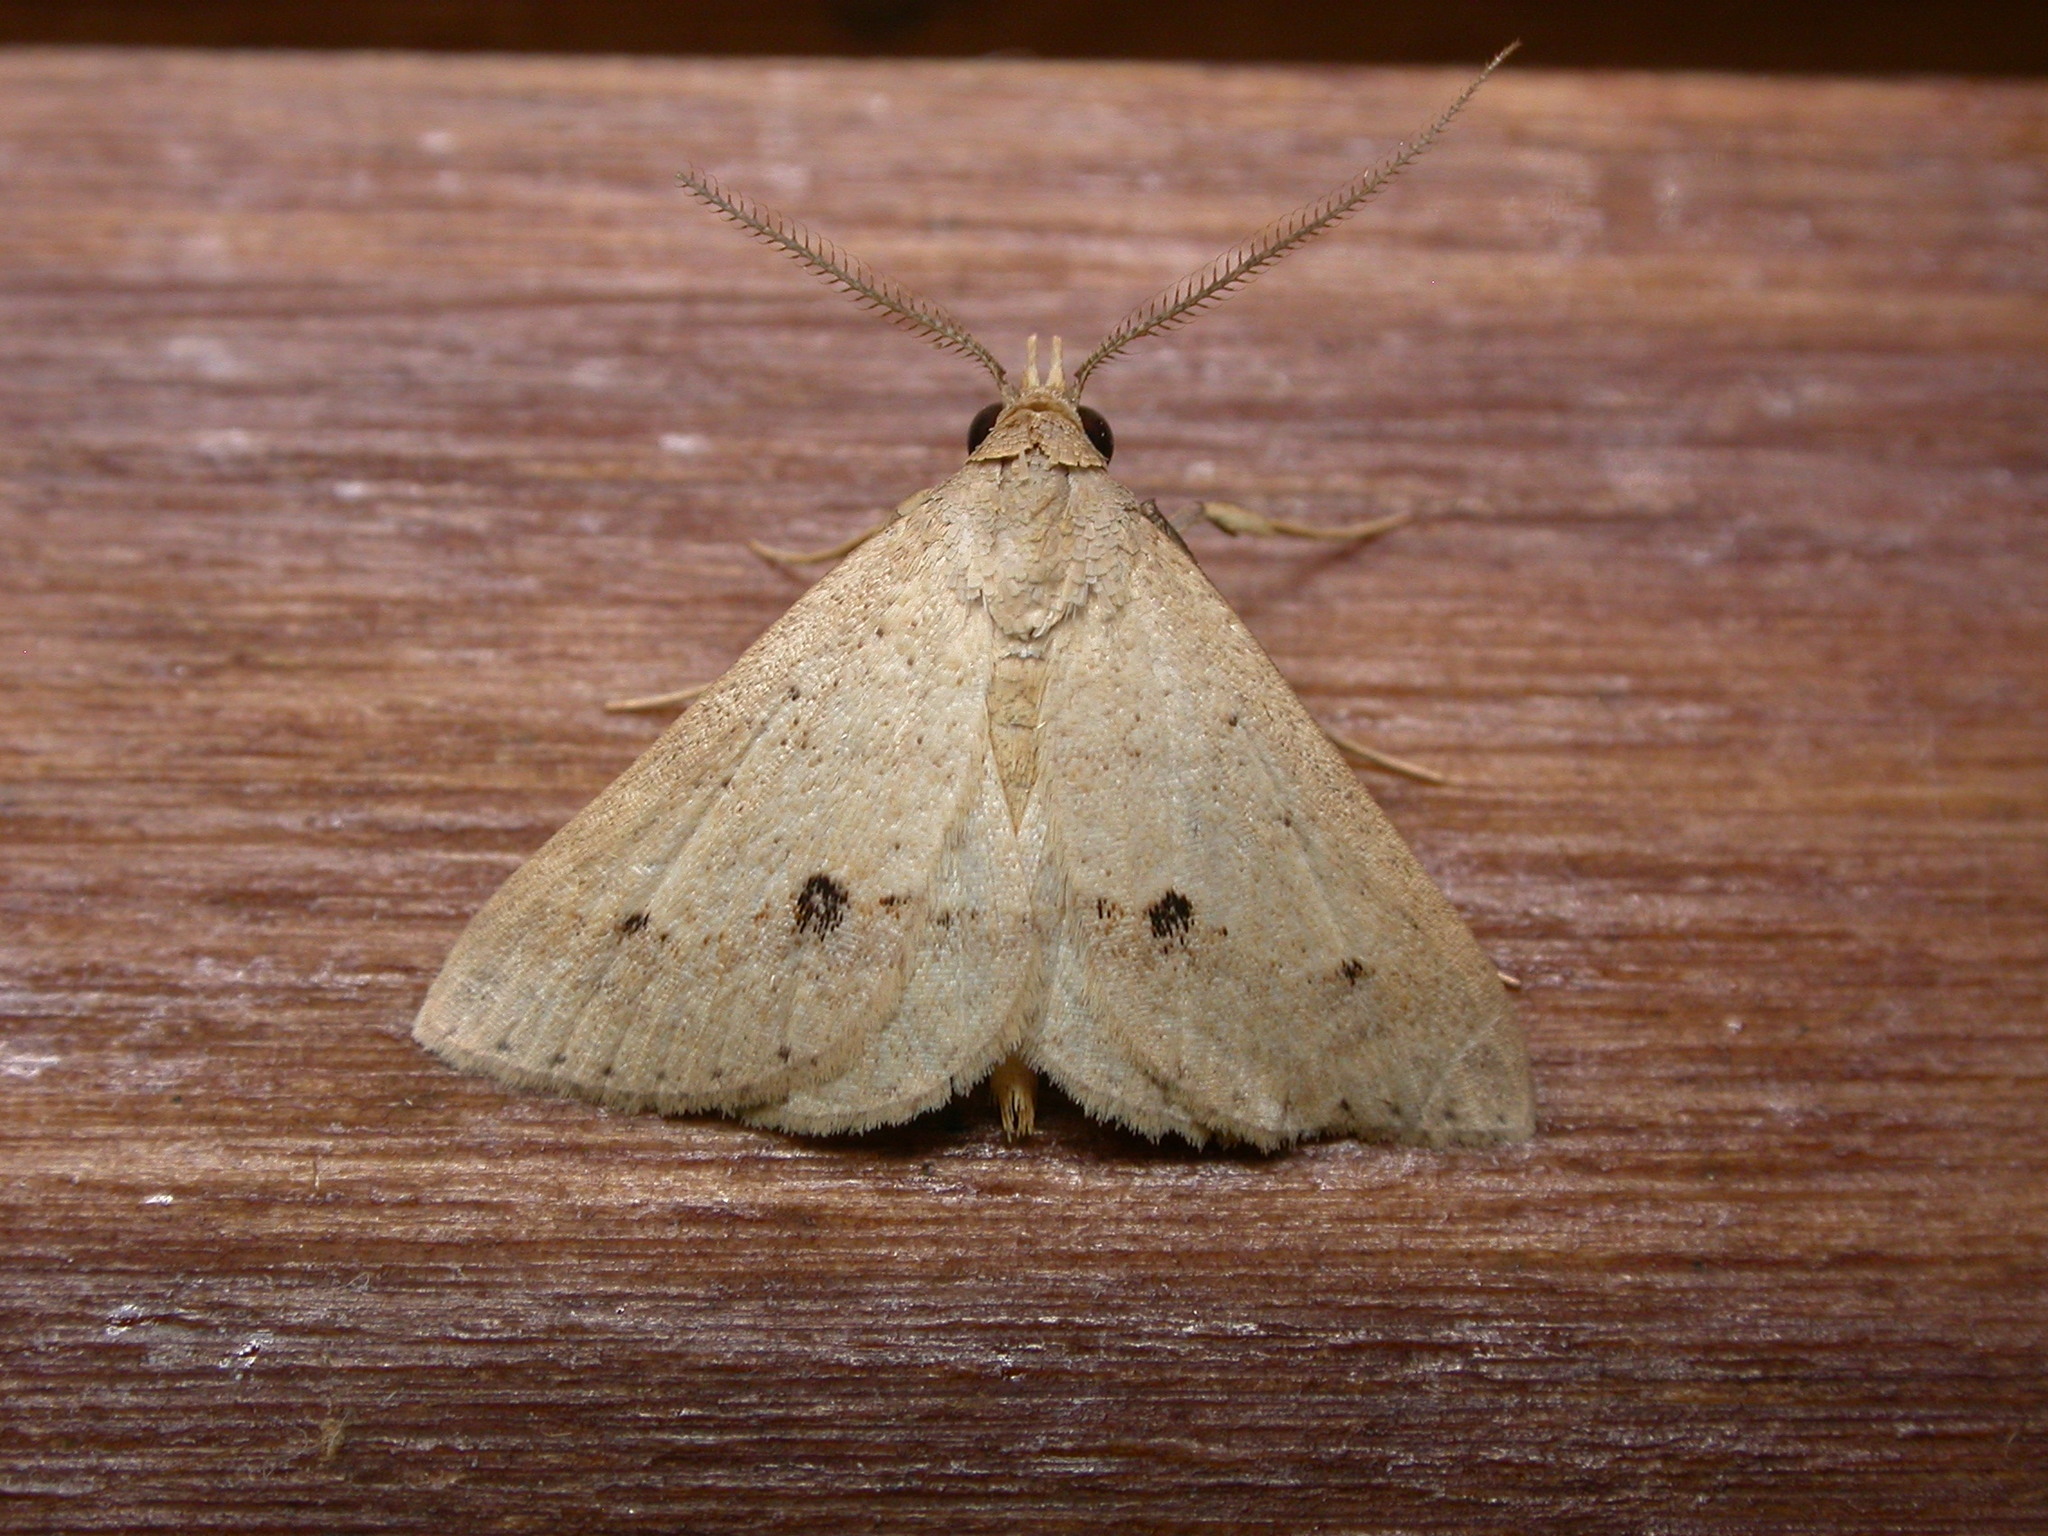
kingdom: Animalia
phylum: Arthropoda
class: Insecta
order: Lepidoptera
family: Erebidae
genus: Gesonia
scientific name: Gesonia obeditalis
